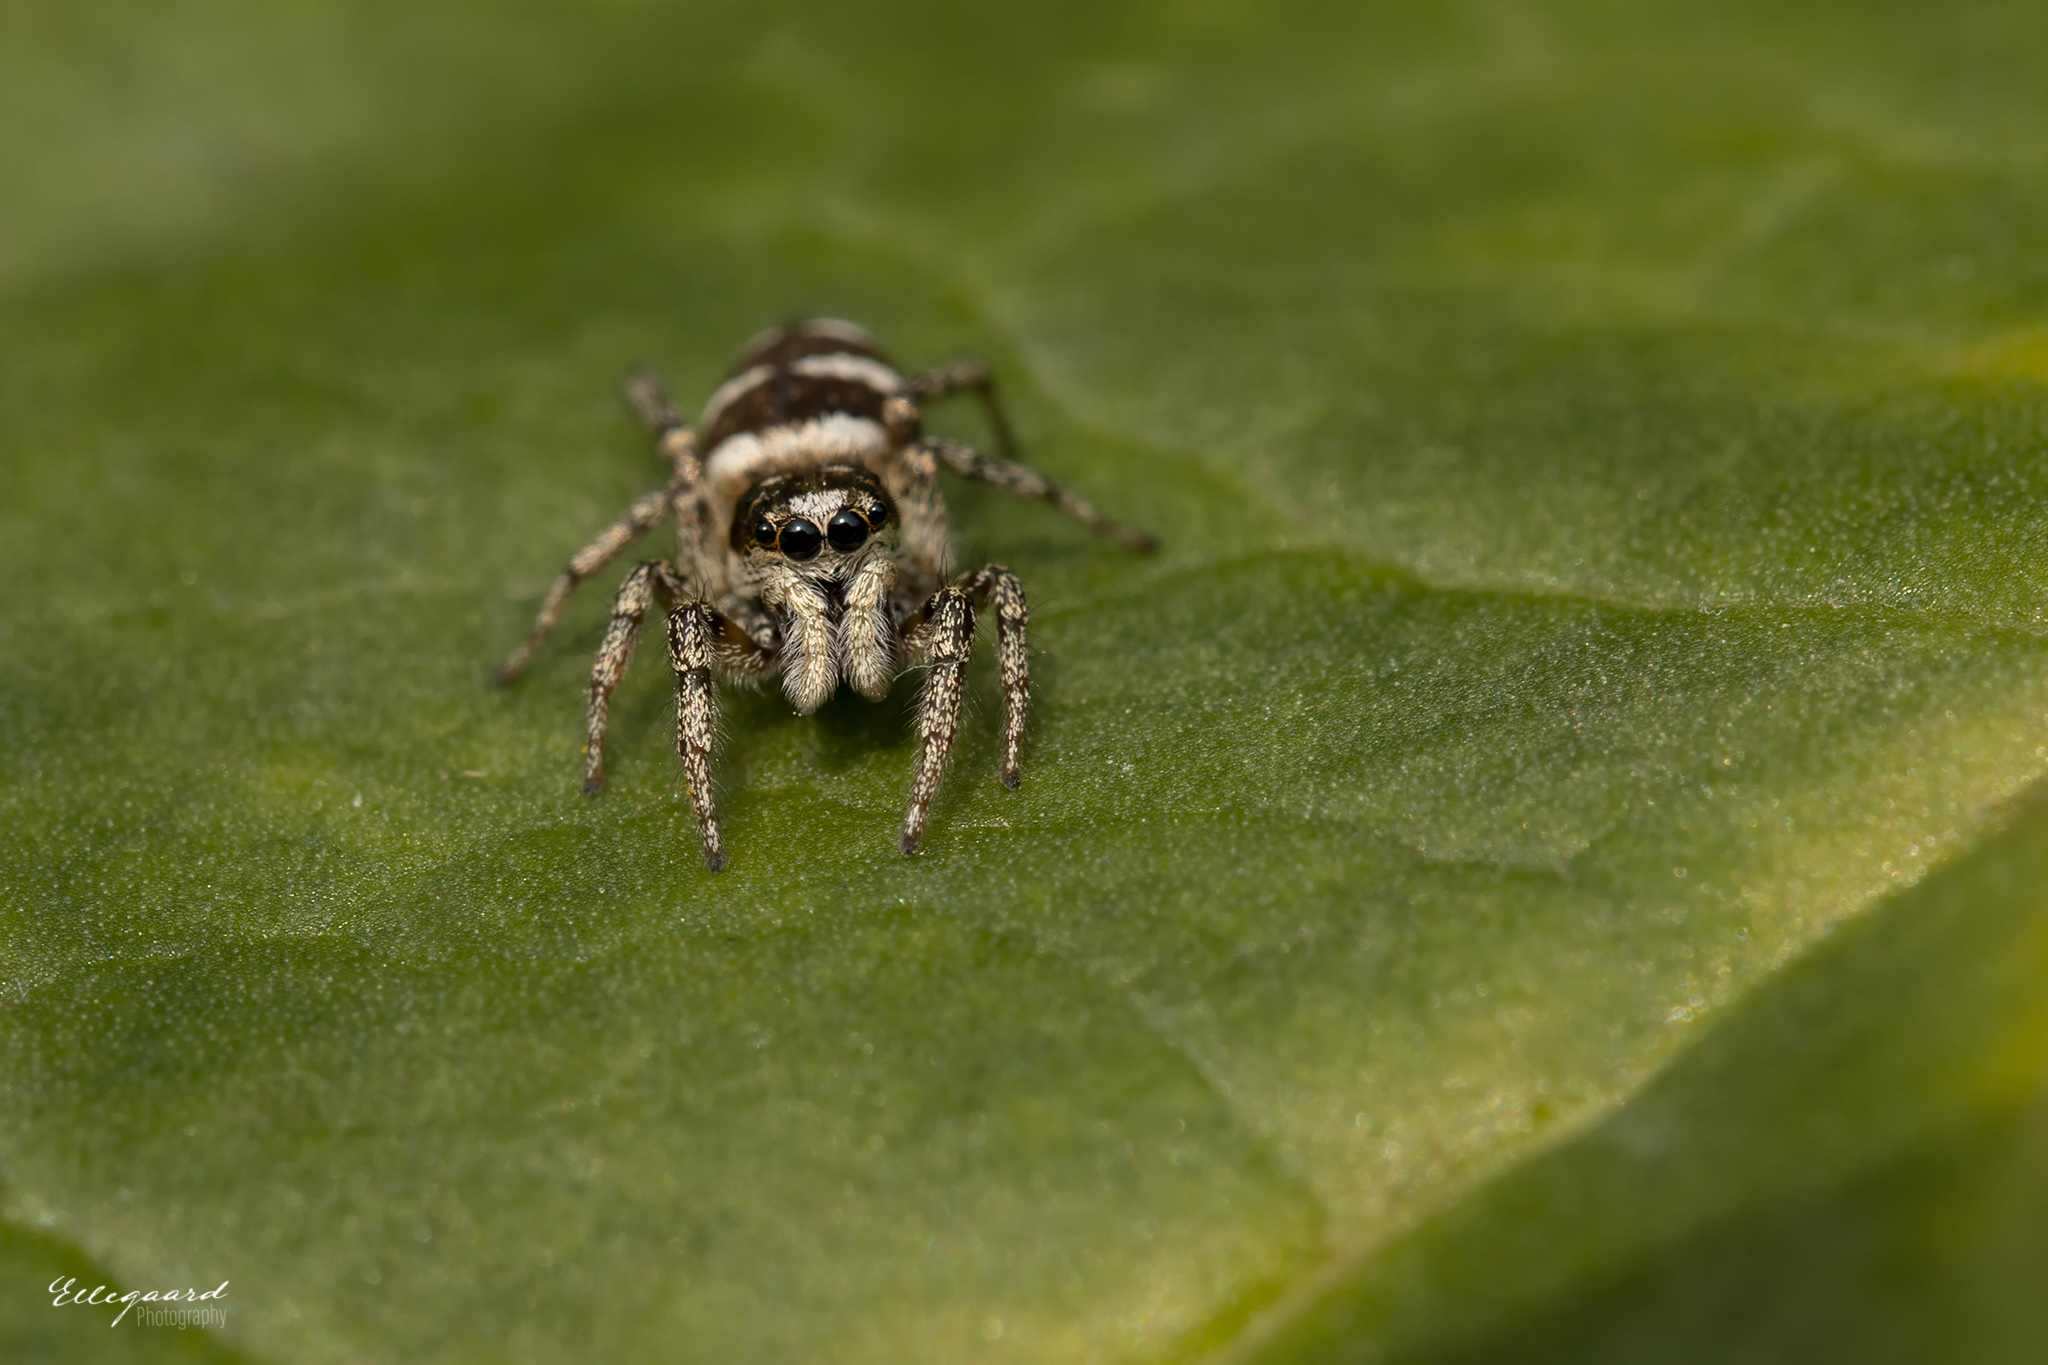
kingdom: Animalia
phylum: Arthropoda
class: Arachnida
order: Araneae
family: Salticidae
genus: Salticus
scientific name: Salticus scenicus
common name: Zebra jumper
